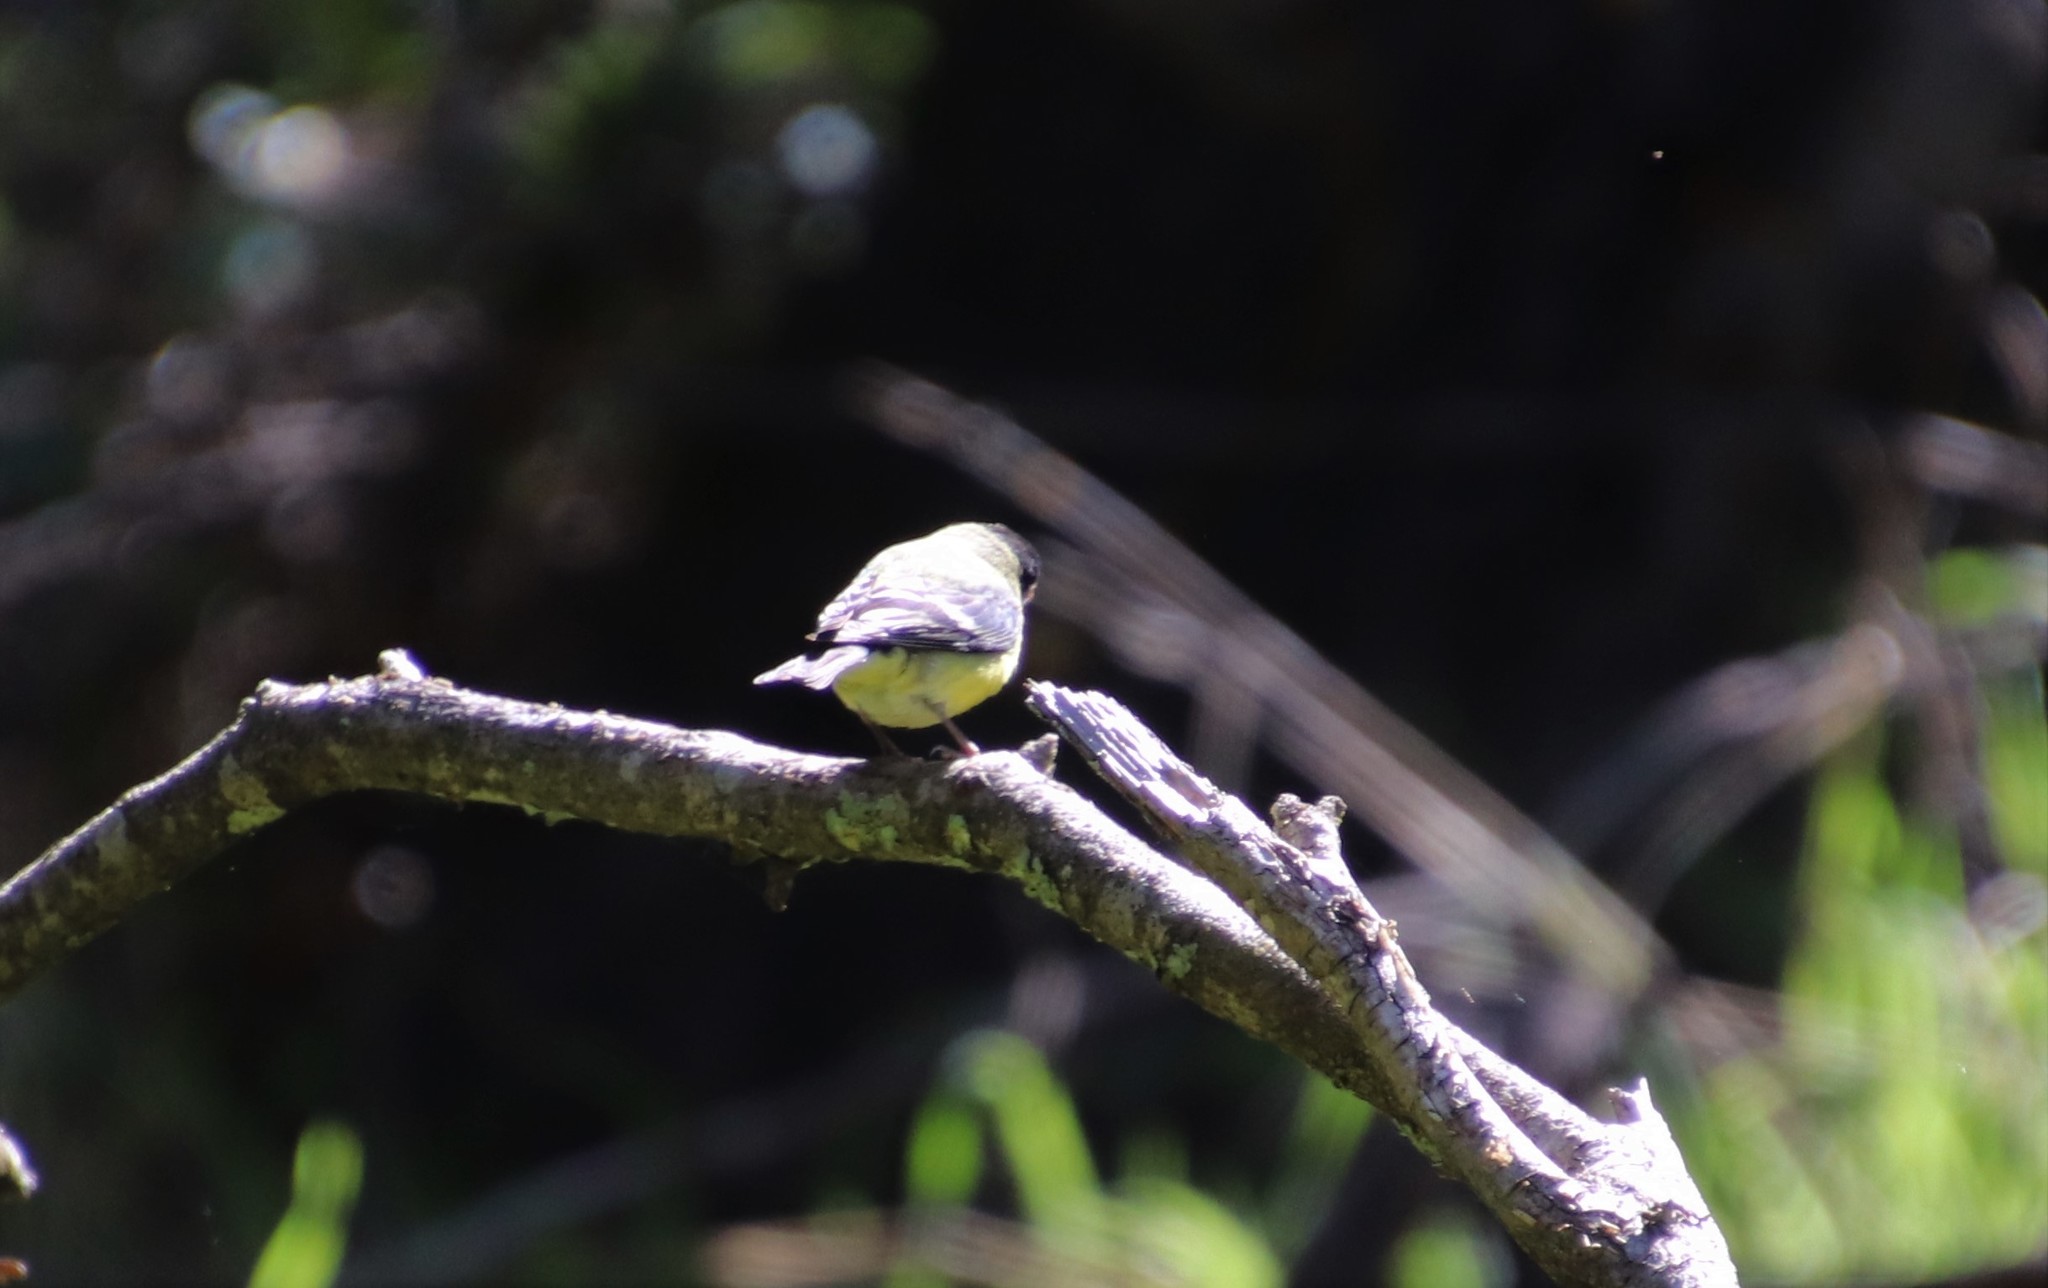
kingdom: Animalia
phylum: Chordata
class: Aves
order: Passeriformes
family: Fringillidae
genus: Spinus
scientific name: Spinus psaltria
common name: Lesser goldfinch
